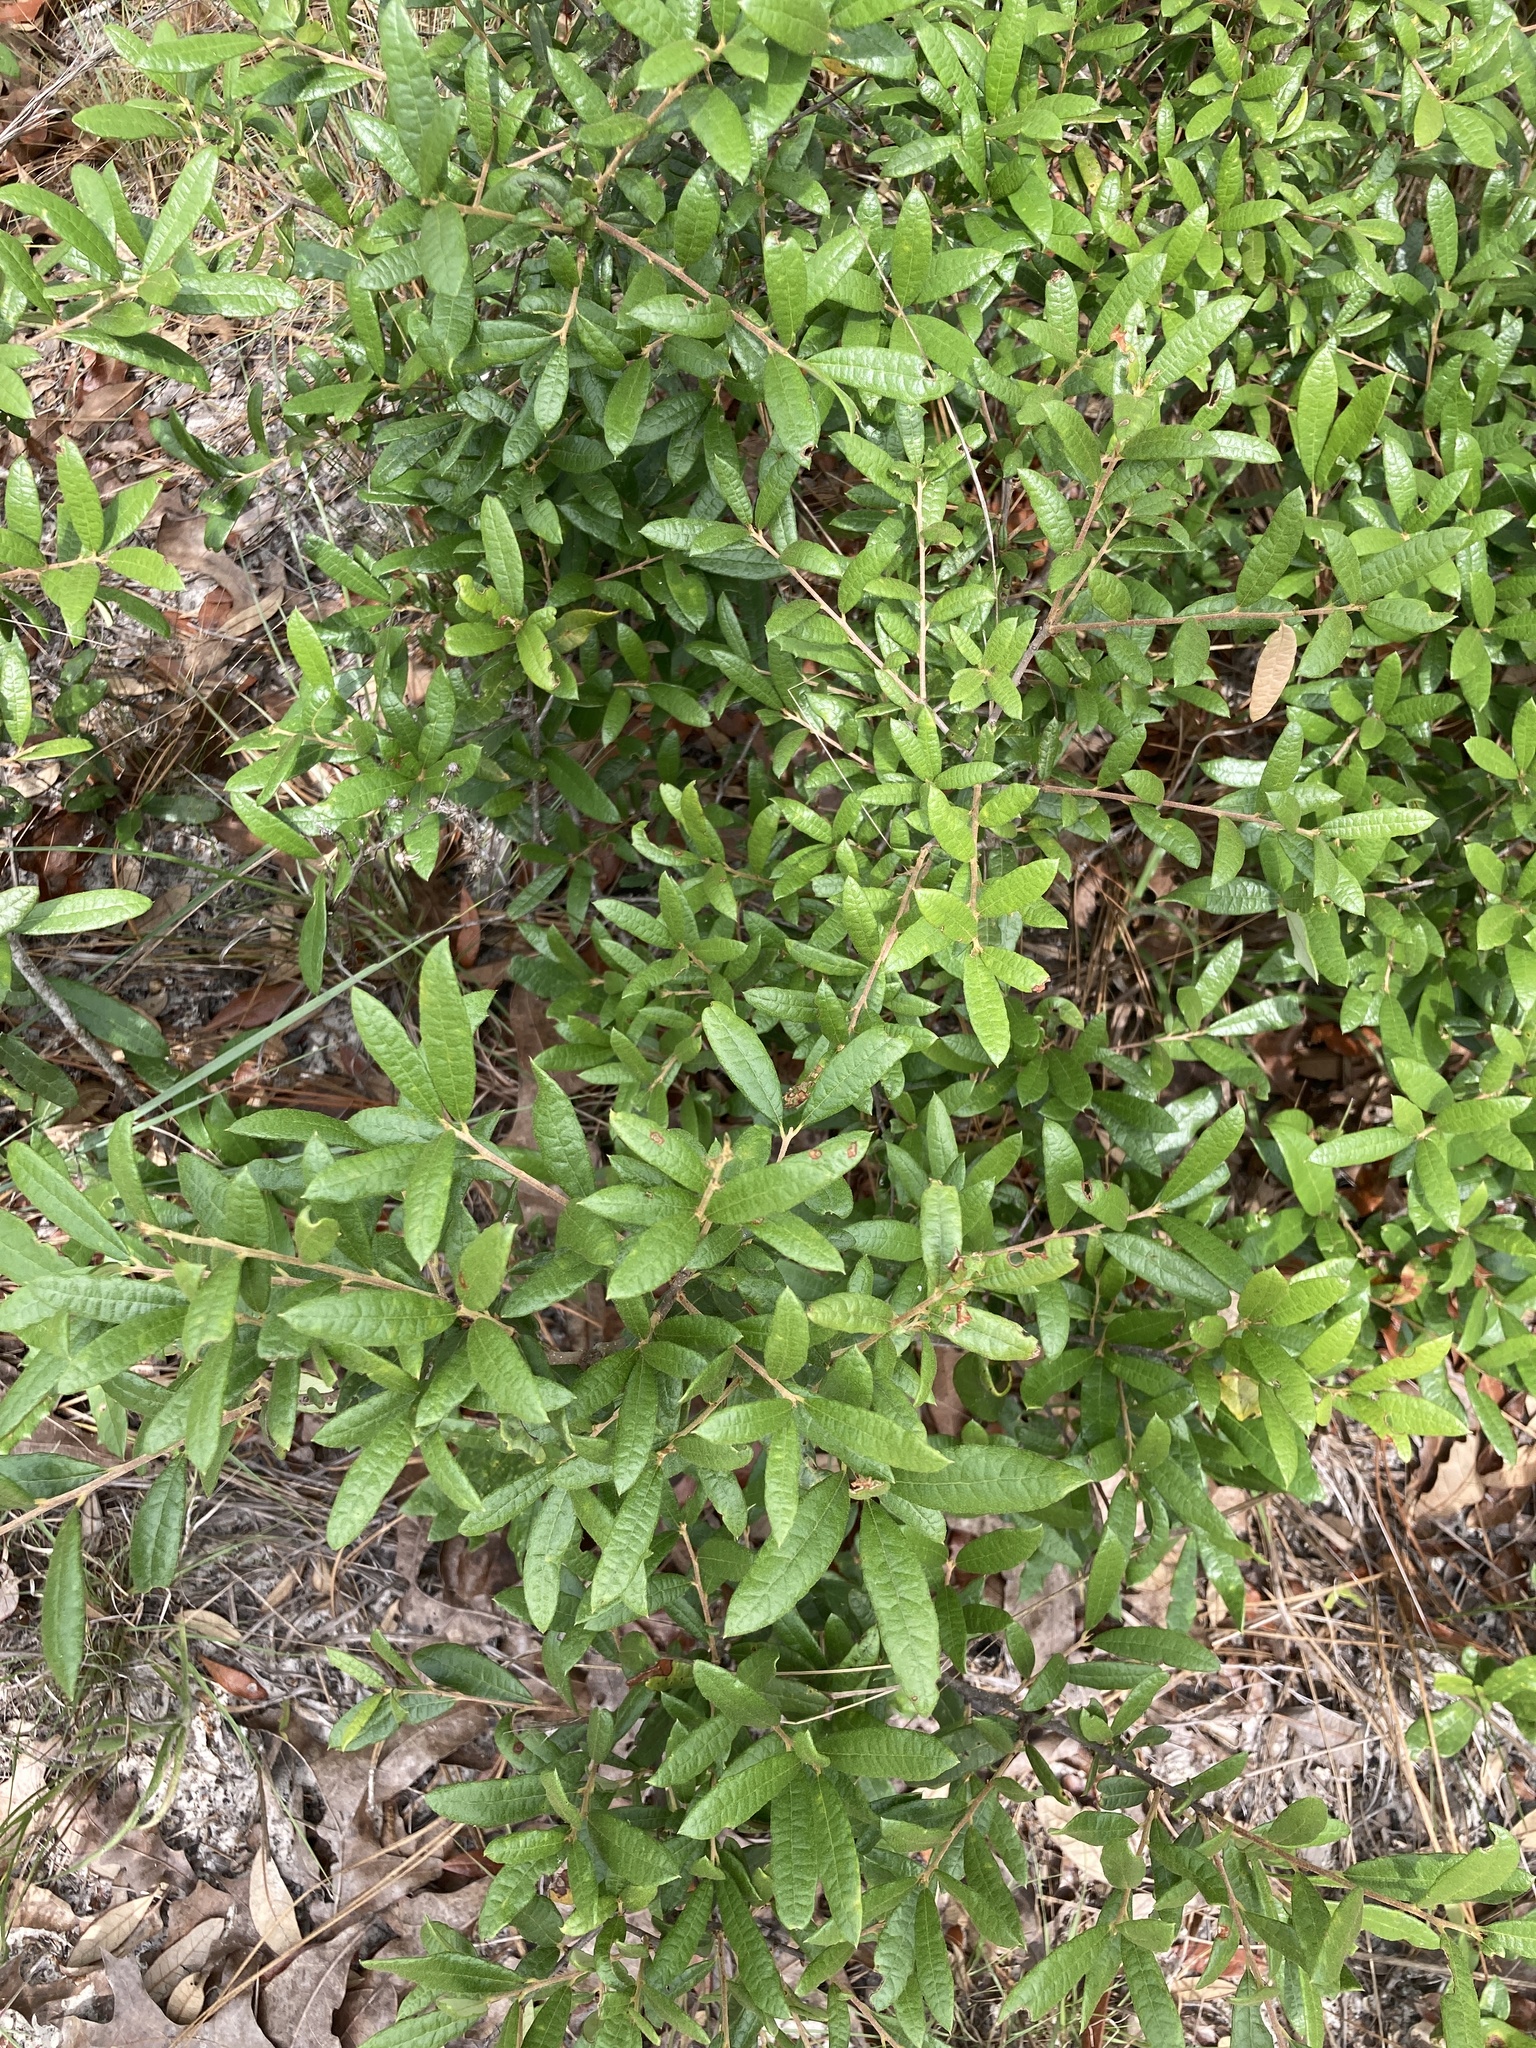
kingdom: Plantae
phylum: Tracheophyta
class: Magnoliopsida
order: Fagales
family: Fagaceae
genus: Quercus
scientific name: Quercus geminata
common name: Sand live oak
